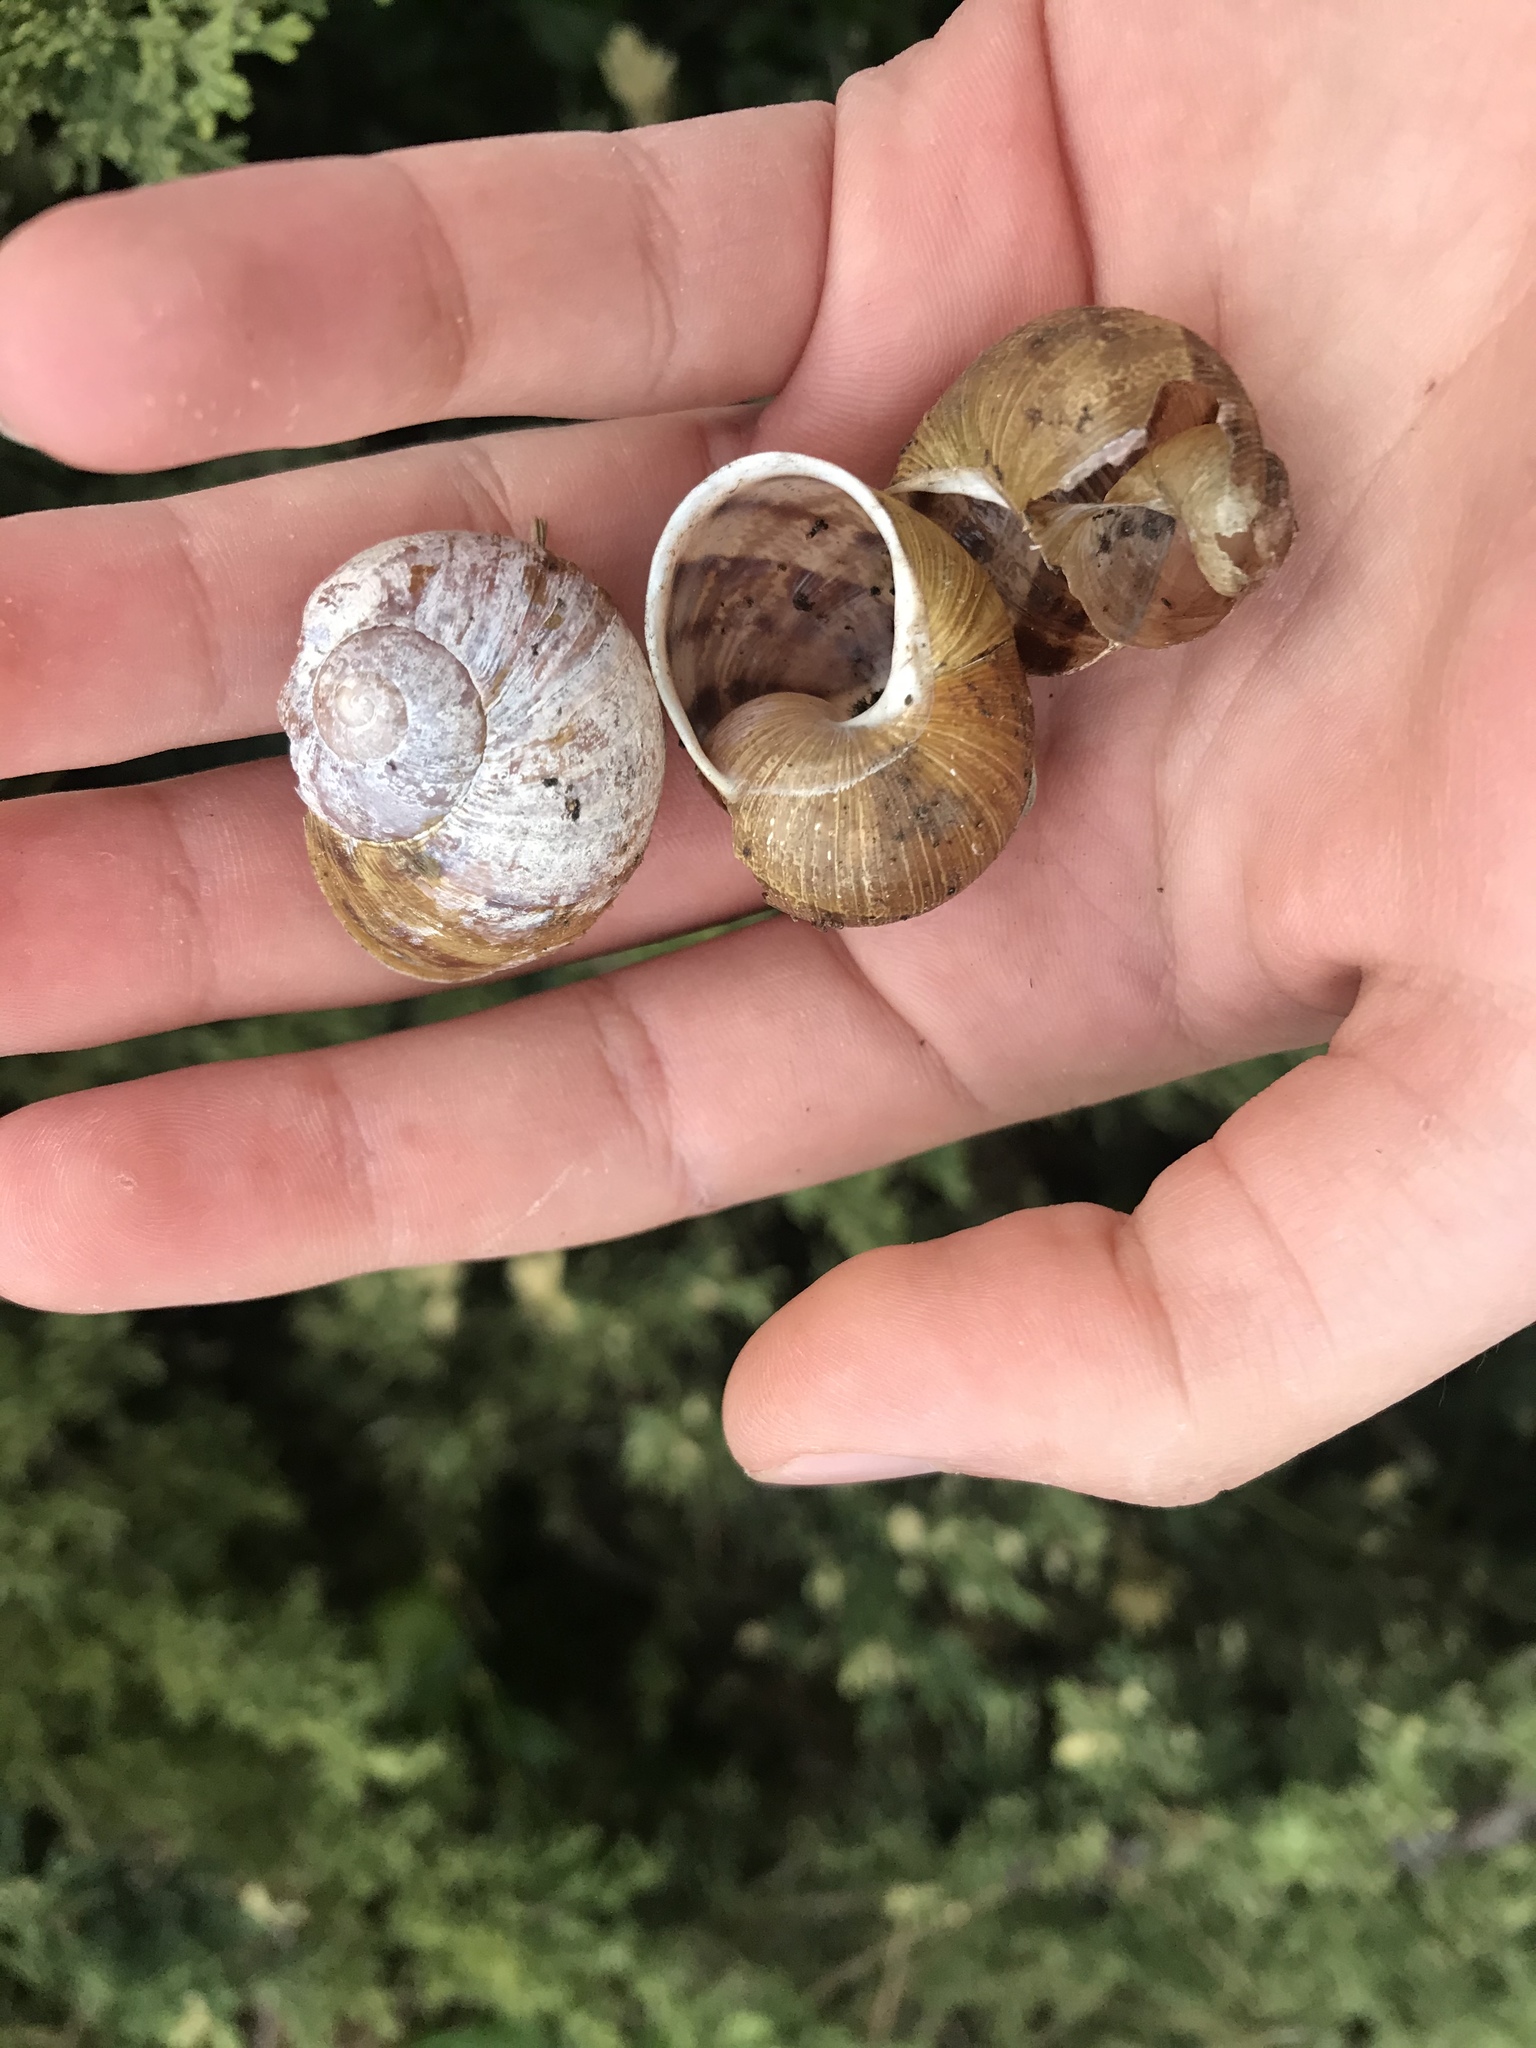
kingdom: Animalia
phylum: Mollusca
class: Gastropoda
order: Stylommatophora
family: Helicidae
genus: Cornu
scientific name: Cornu aspersum
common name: Brown garden snail
